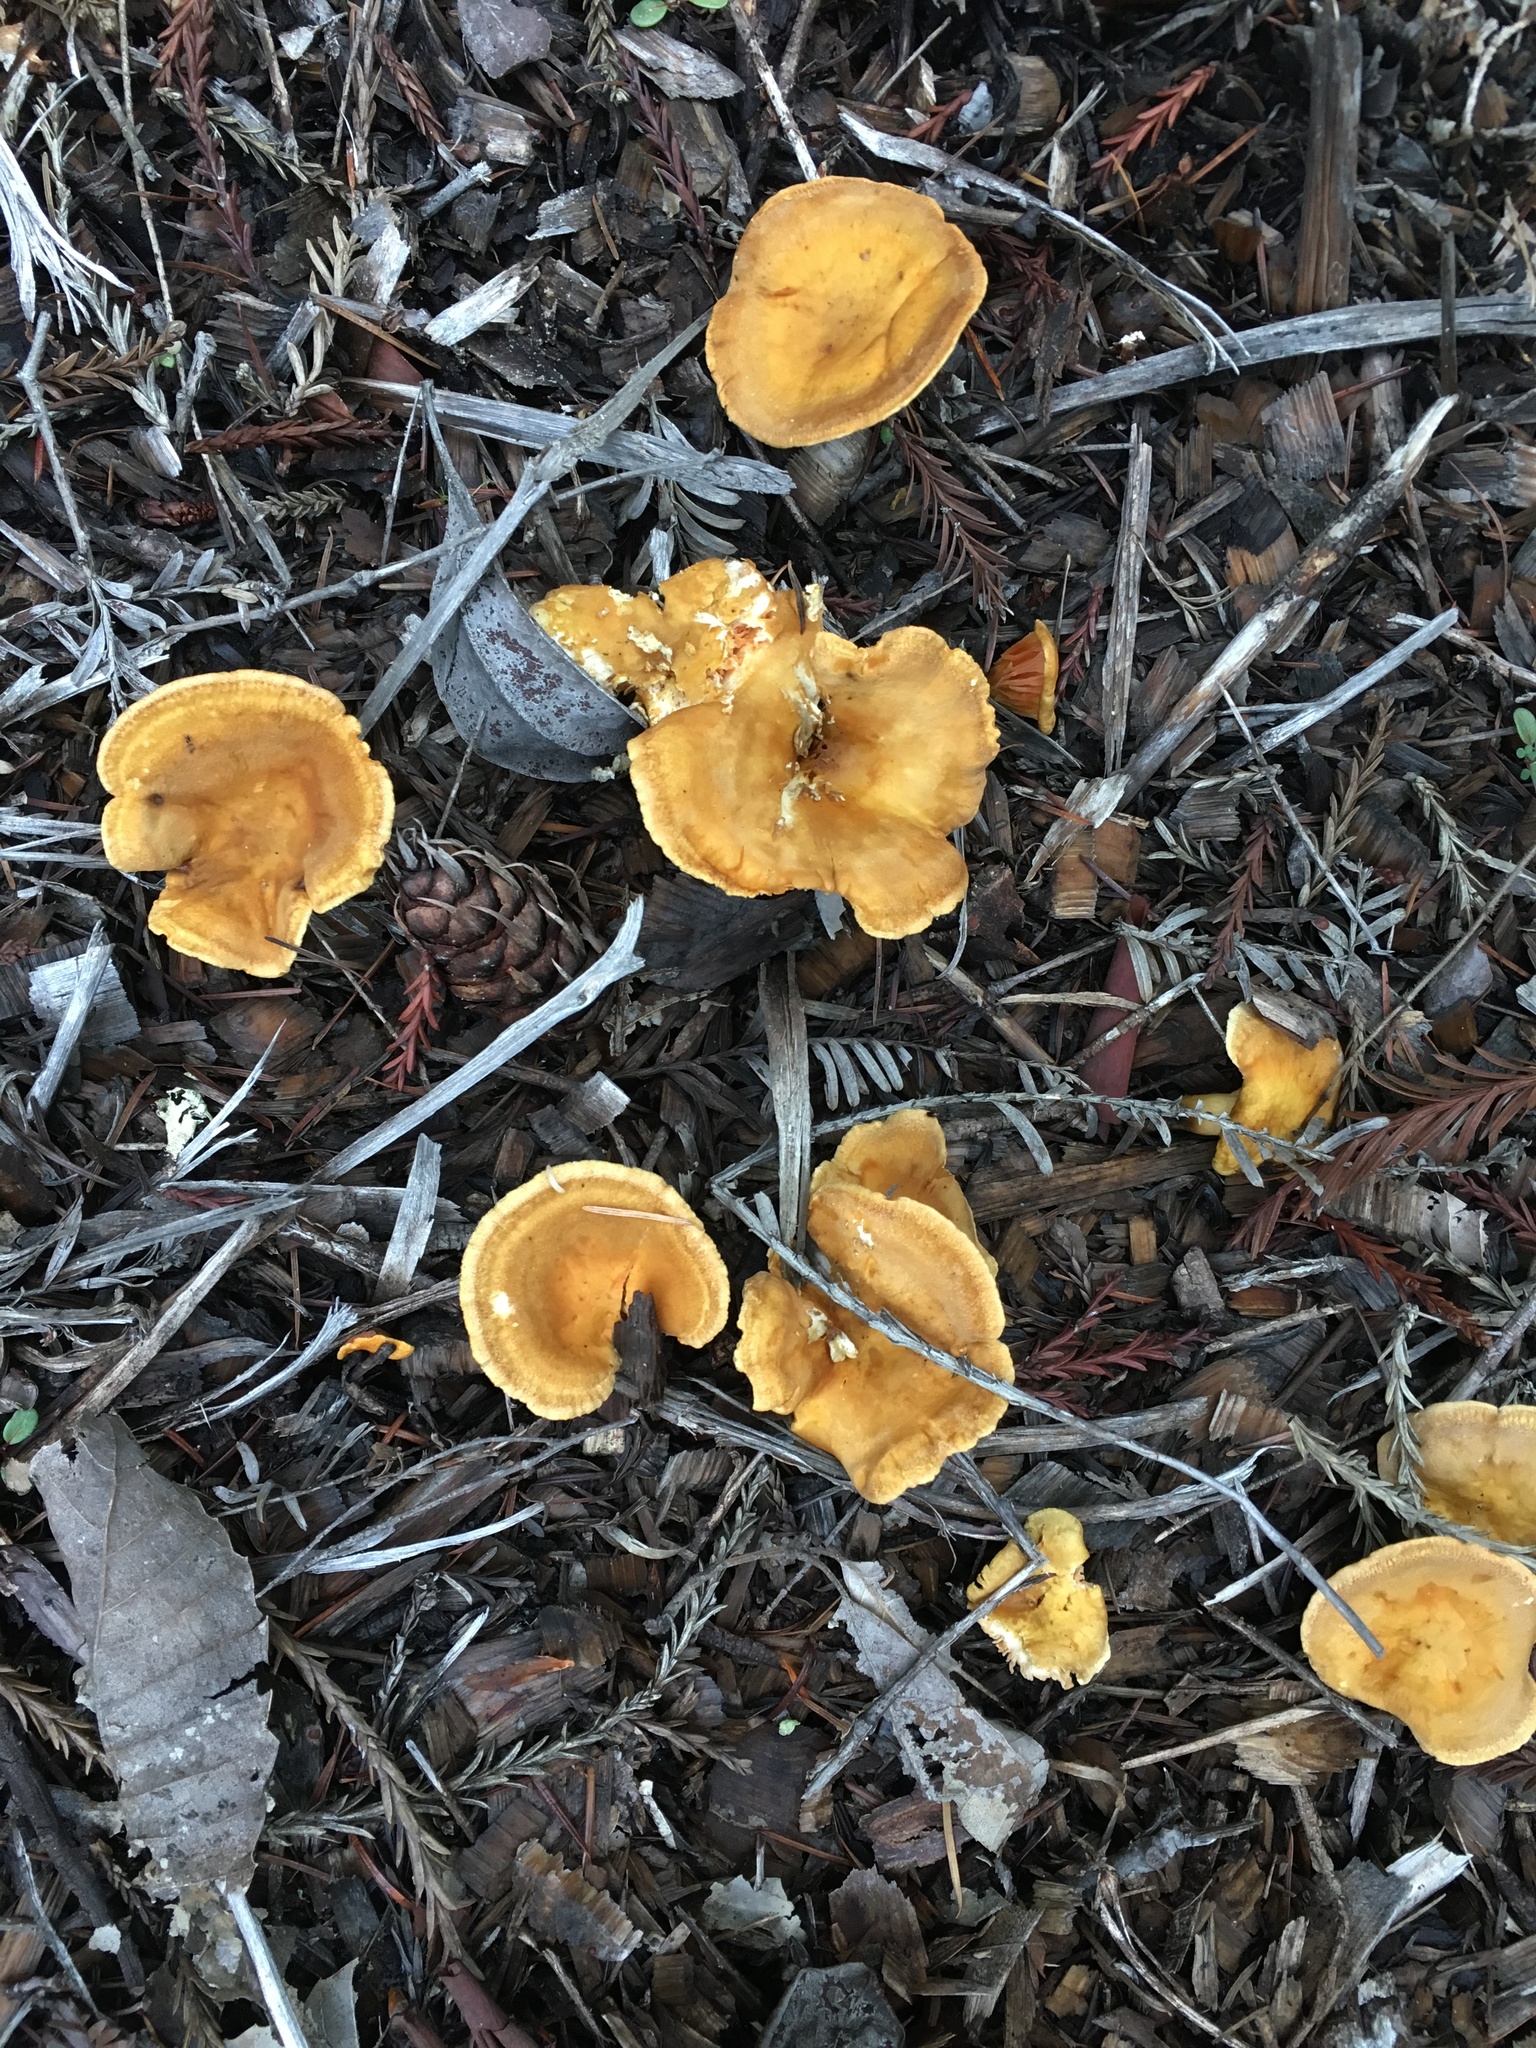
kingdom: Fungi
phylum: Basidiomycota
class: Agaricomycetes
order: Boletales
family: Hygrophoropsidaceae
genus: Hygrophoropsis
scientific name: Hygrophoropsis aurantiaca
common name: False chanterelle
